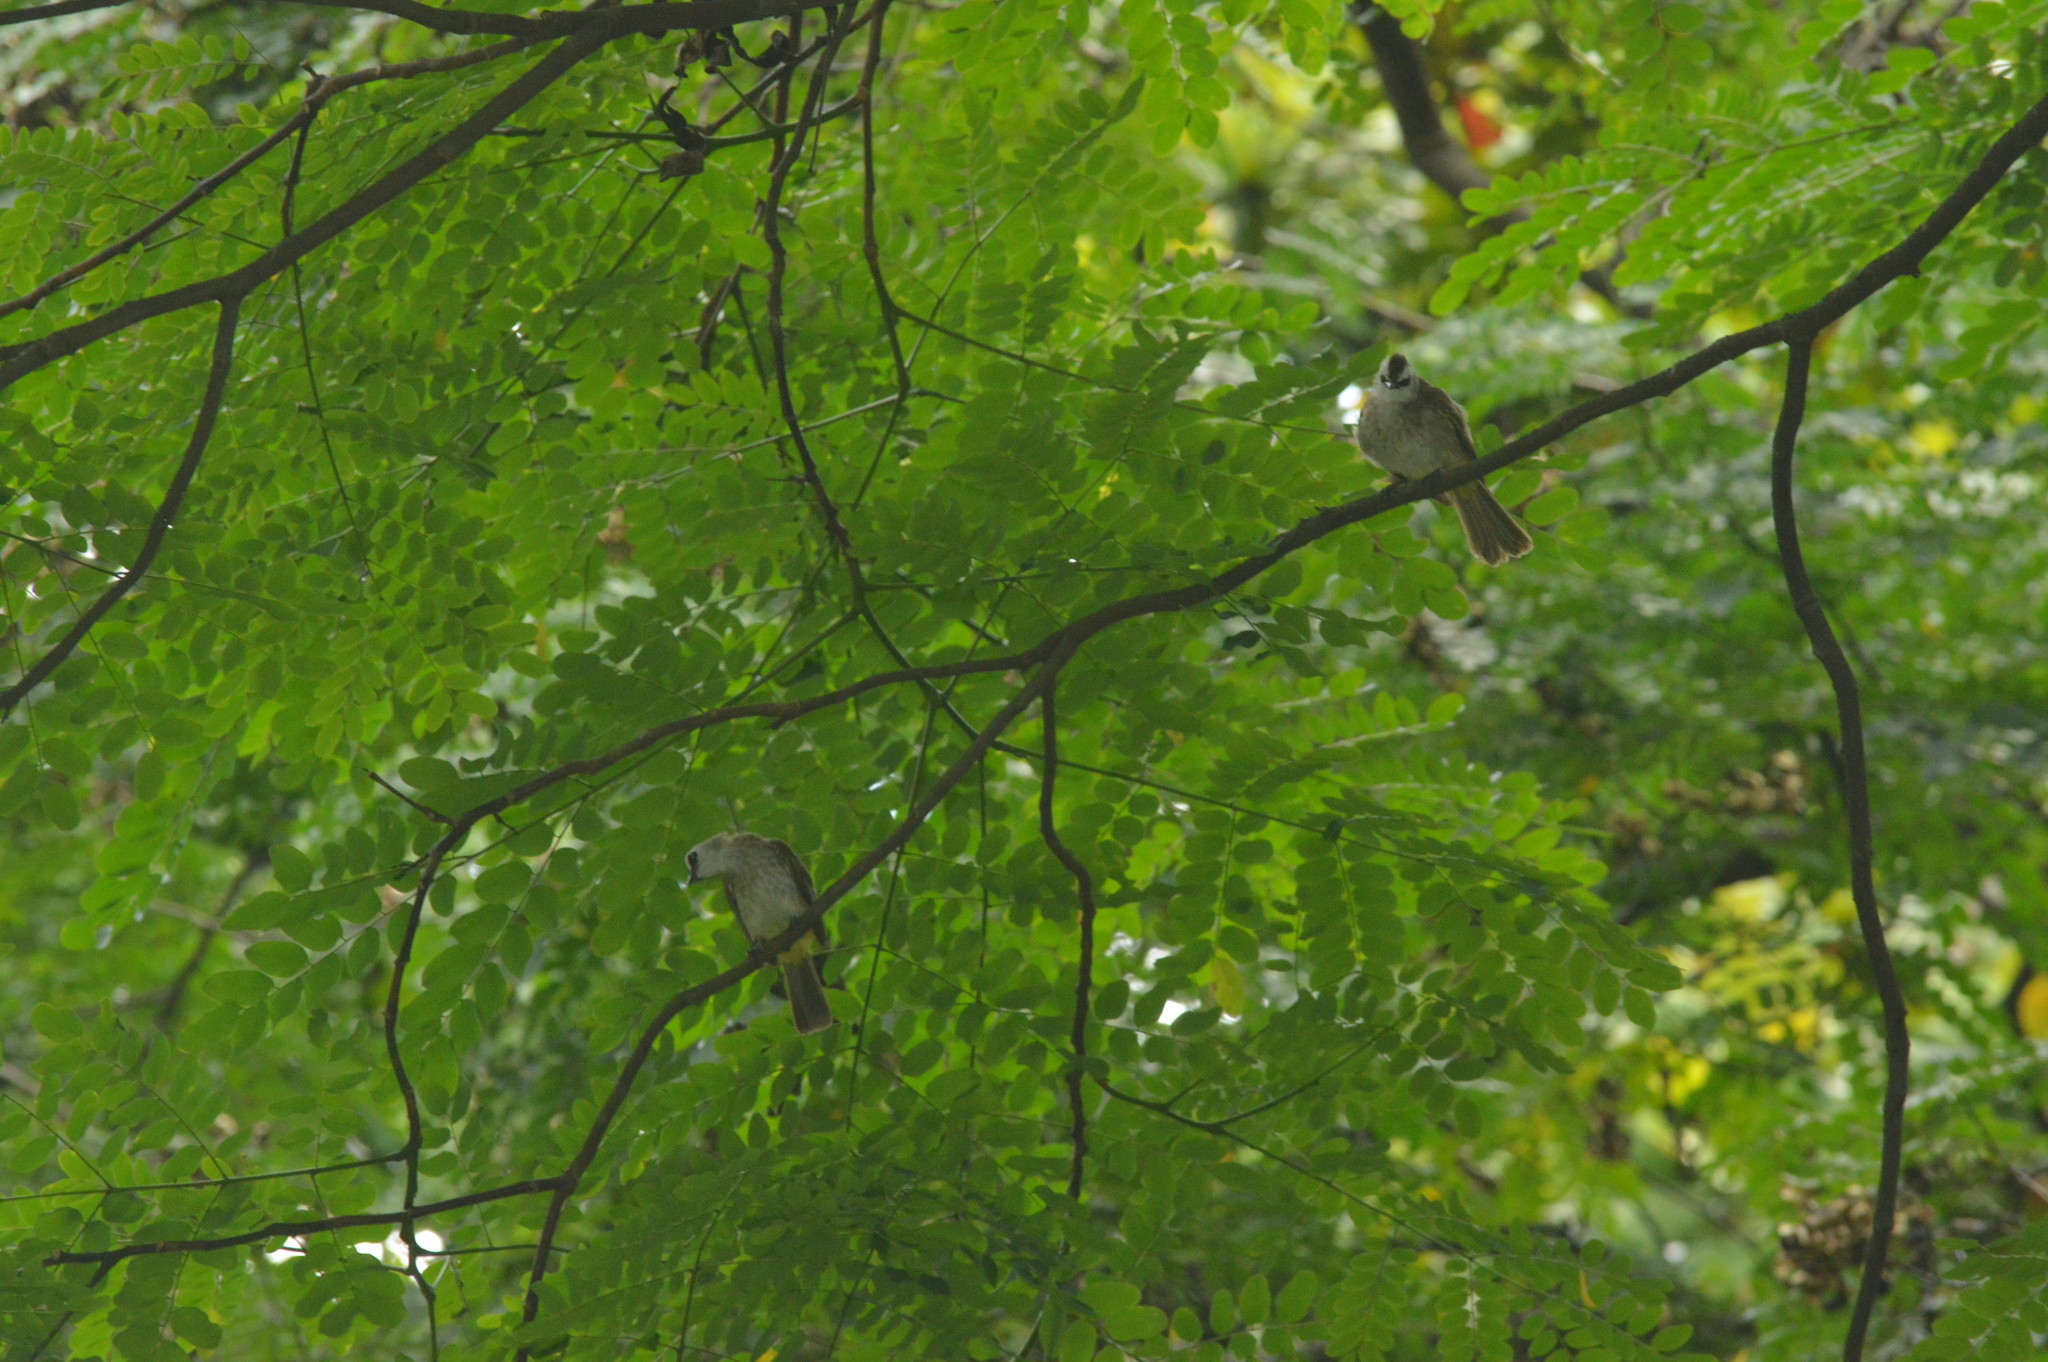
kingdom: Animalia
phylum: Chordata
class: Aves
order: Passeriformes
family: Pycnonotidae
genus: Pycnonotus
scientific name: Pycnonotus goiavier
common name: Yellow-vented bulbul
